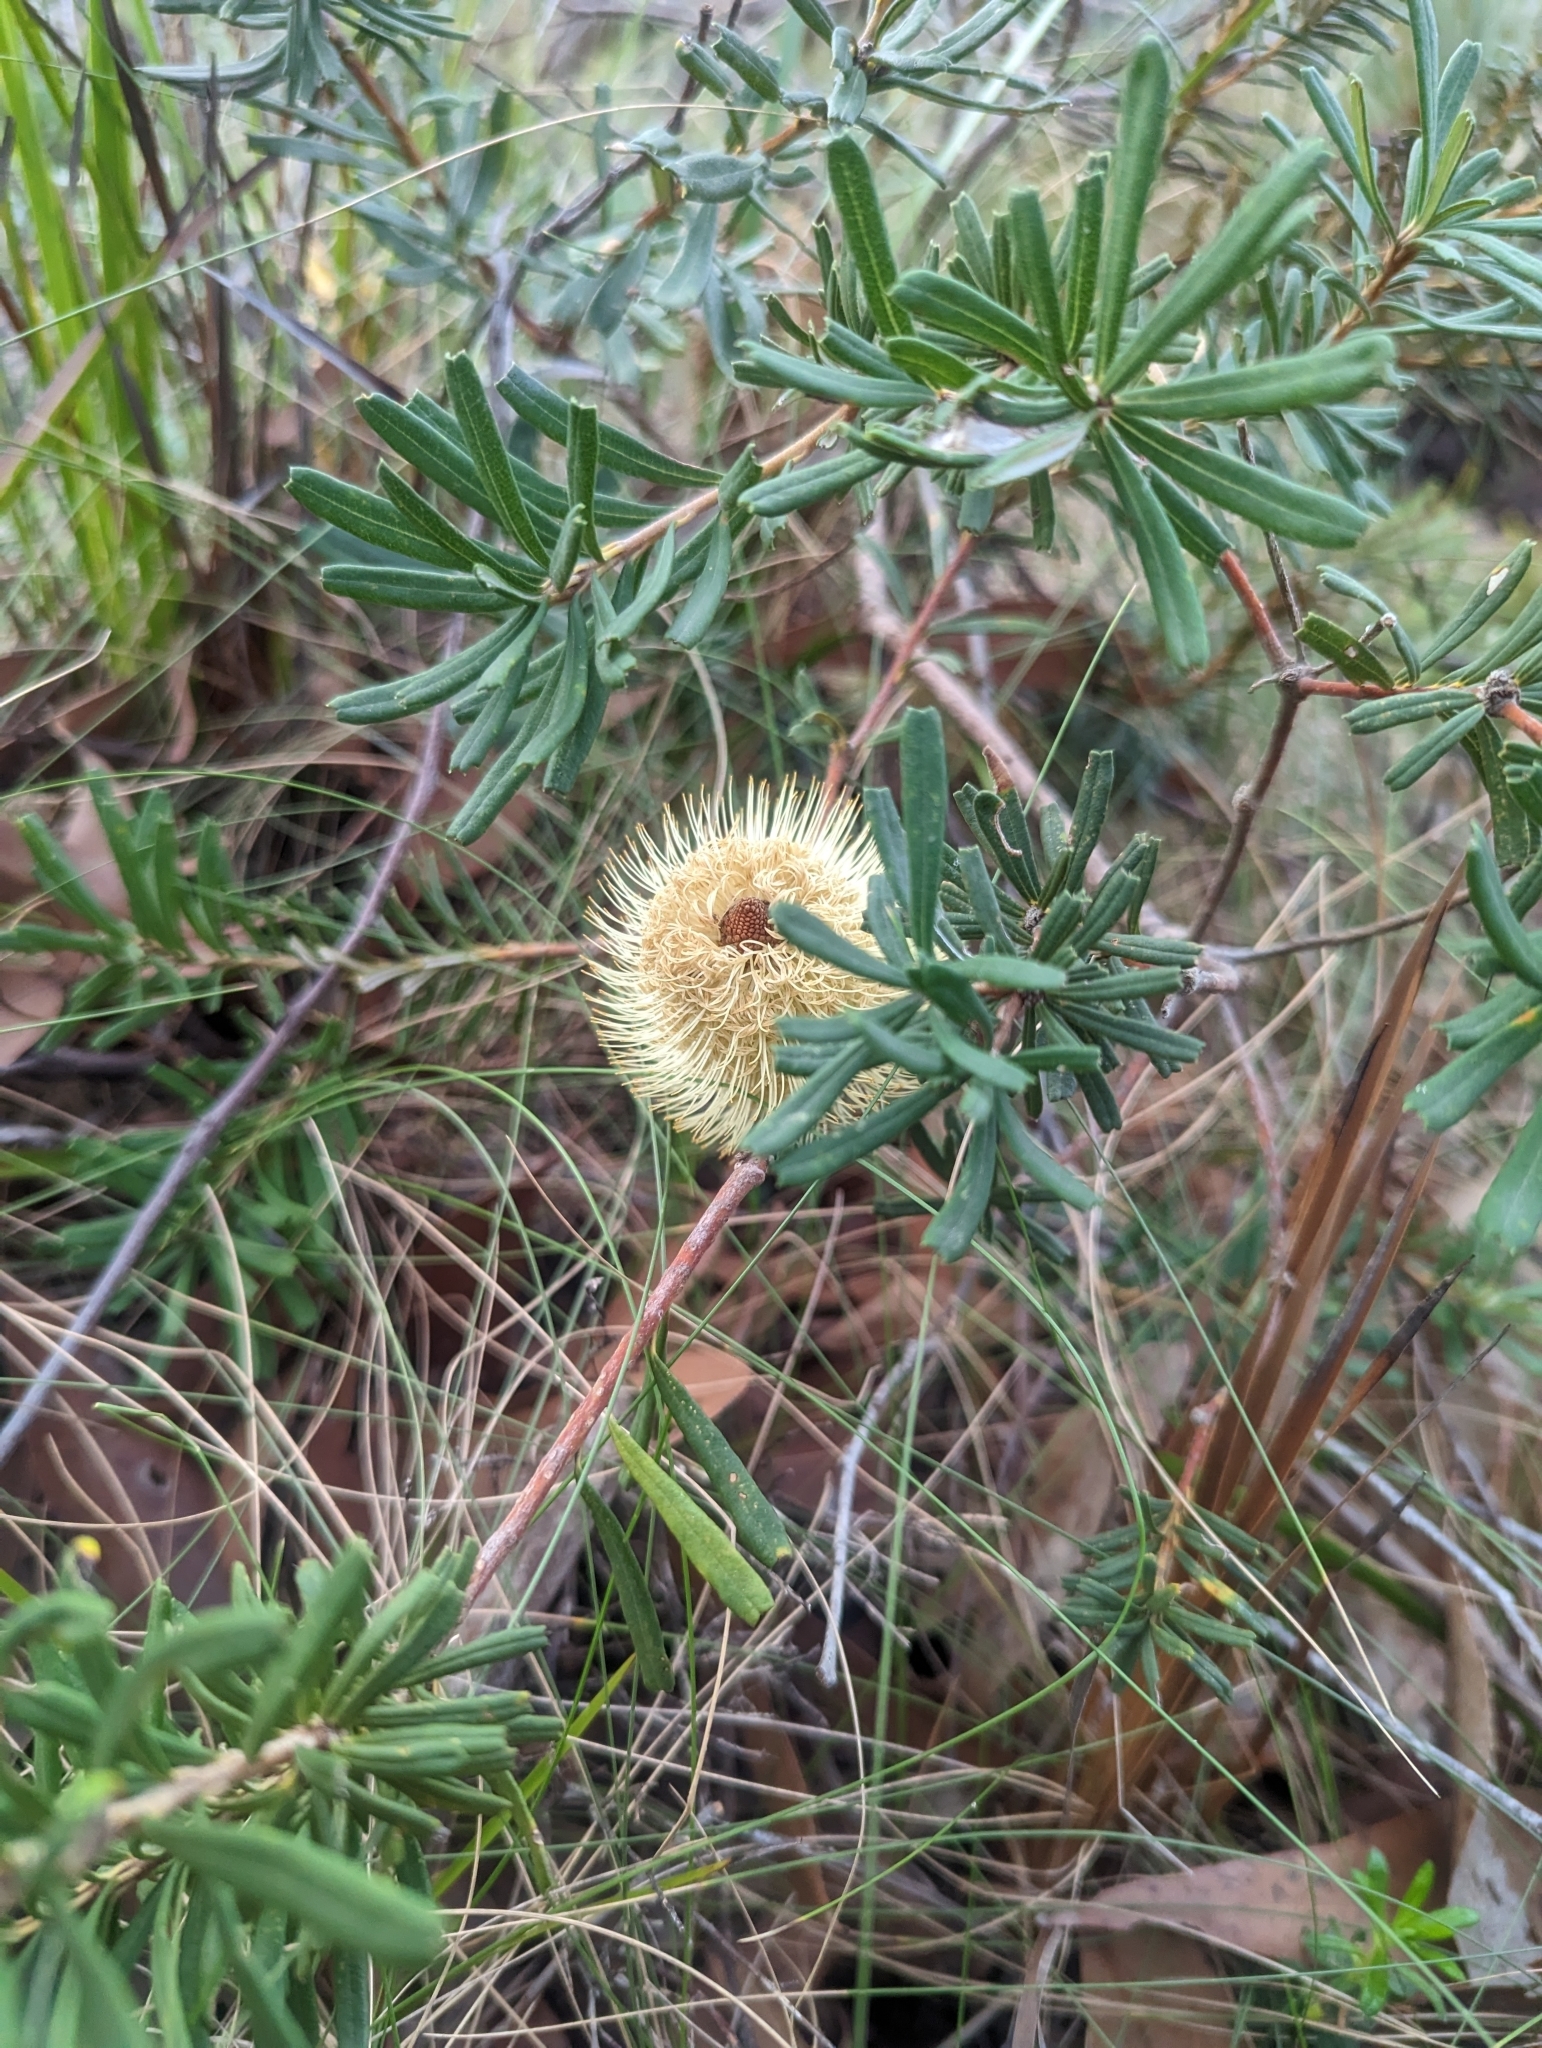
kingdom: Plantae
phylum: Tracheophyta
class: Magnoliopsida
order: Proteales
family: Proteaceae
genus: Banksia
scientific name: Banksia marginata
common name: Silver banksia
